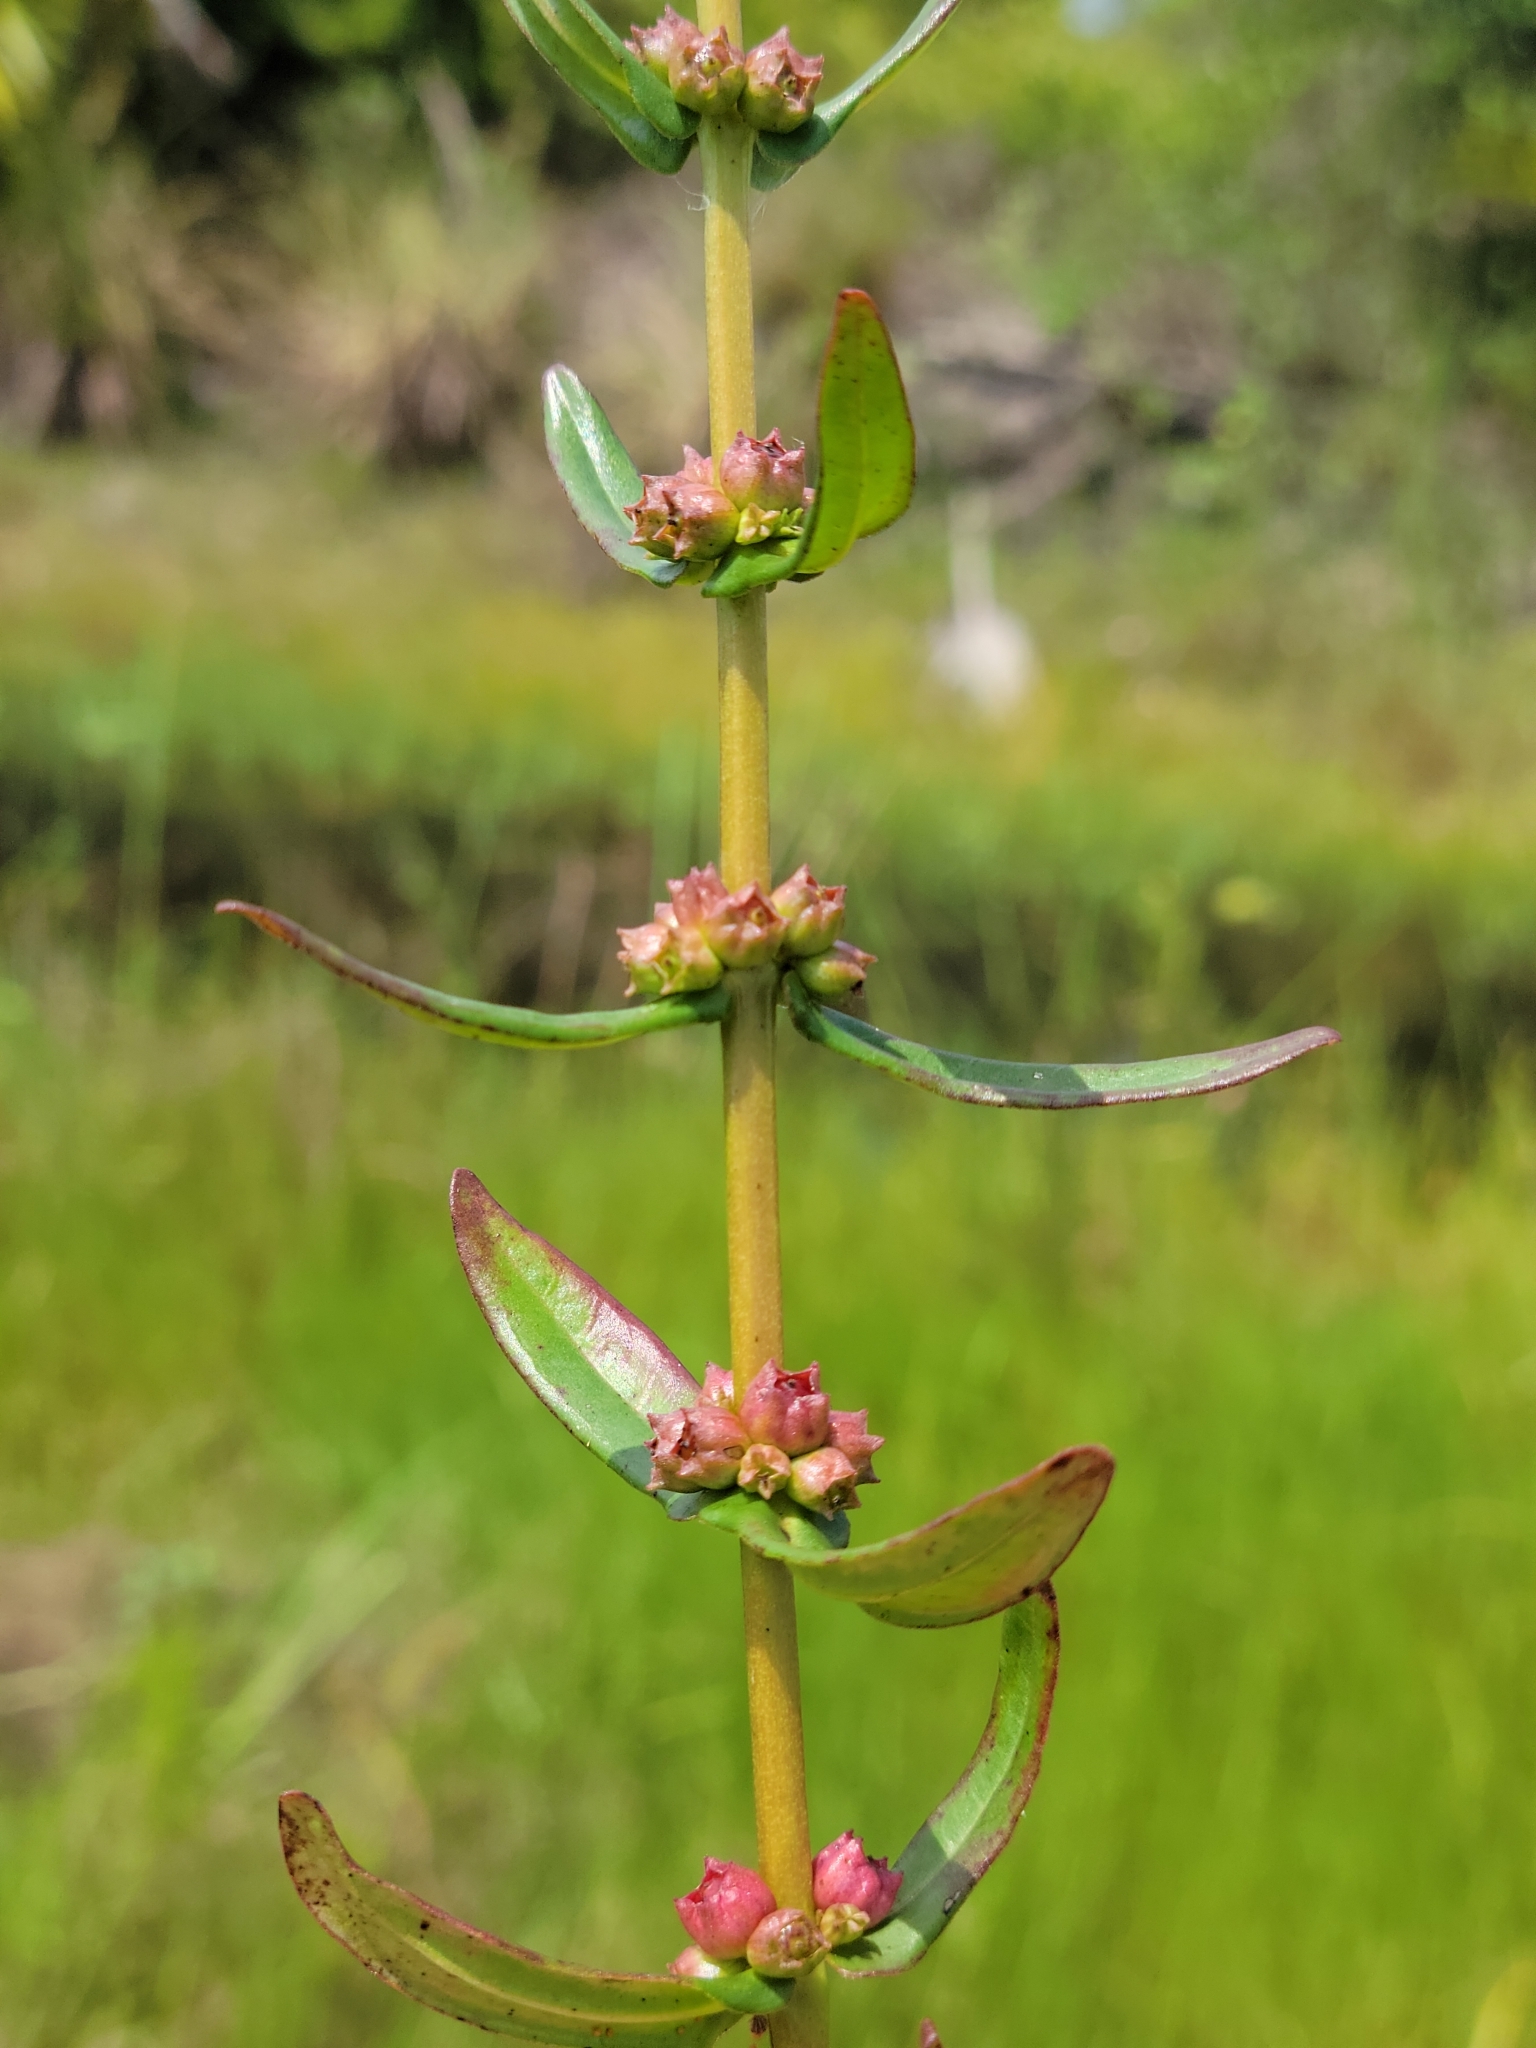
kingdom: Plantae
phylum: Tracheophyta
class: Magnoliopsida
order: Myrtales
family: Lythraceae
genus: Ammannia
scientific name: Ammannia latifolia
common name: Toothcup
